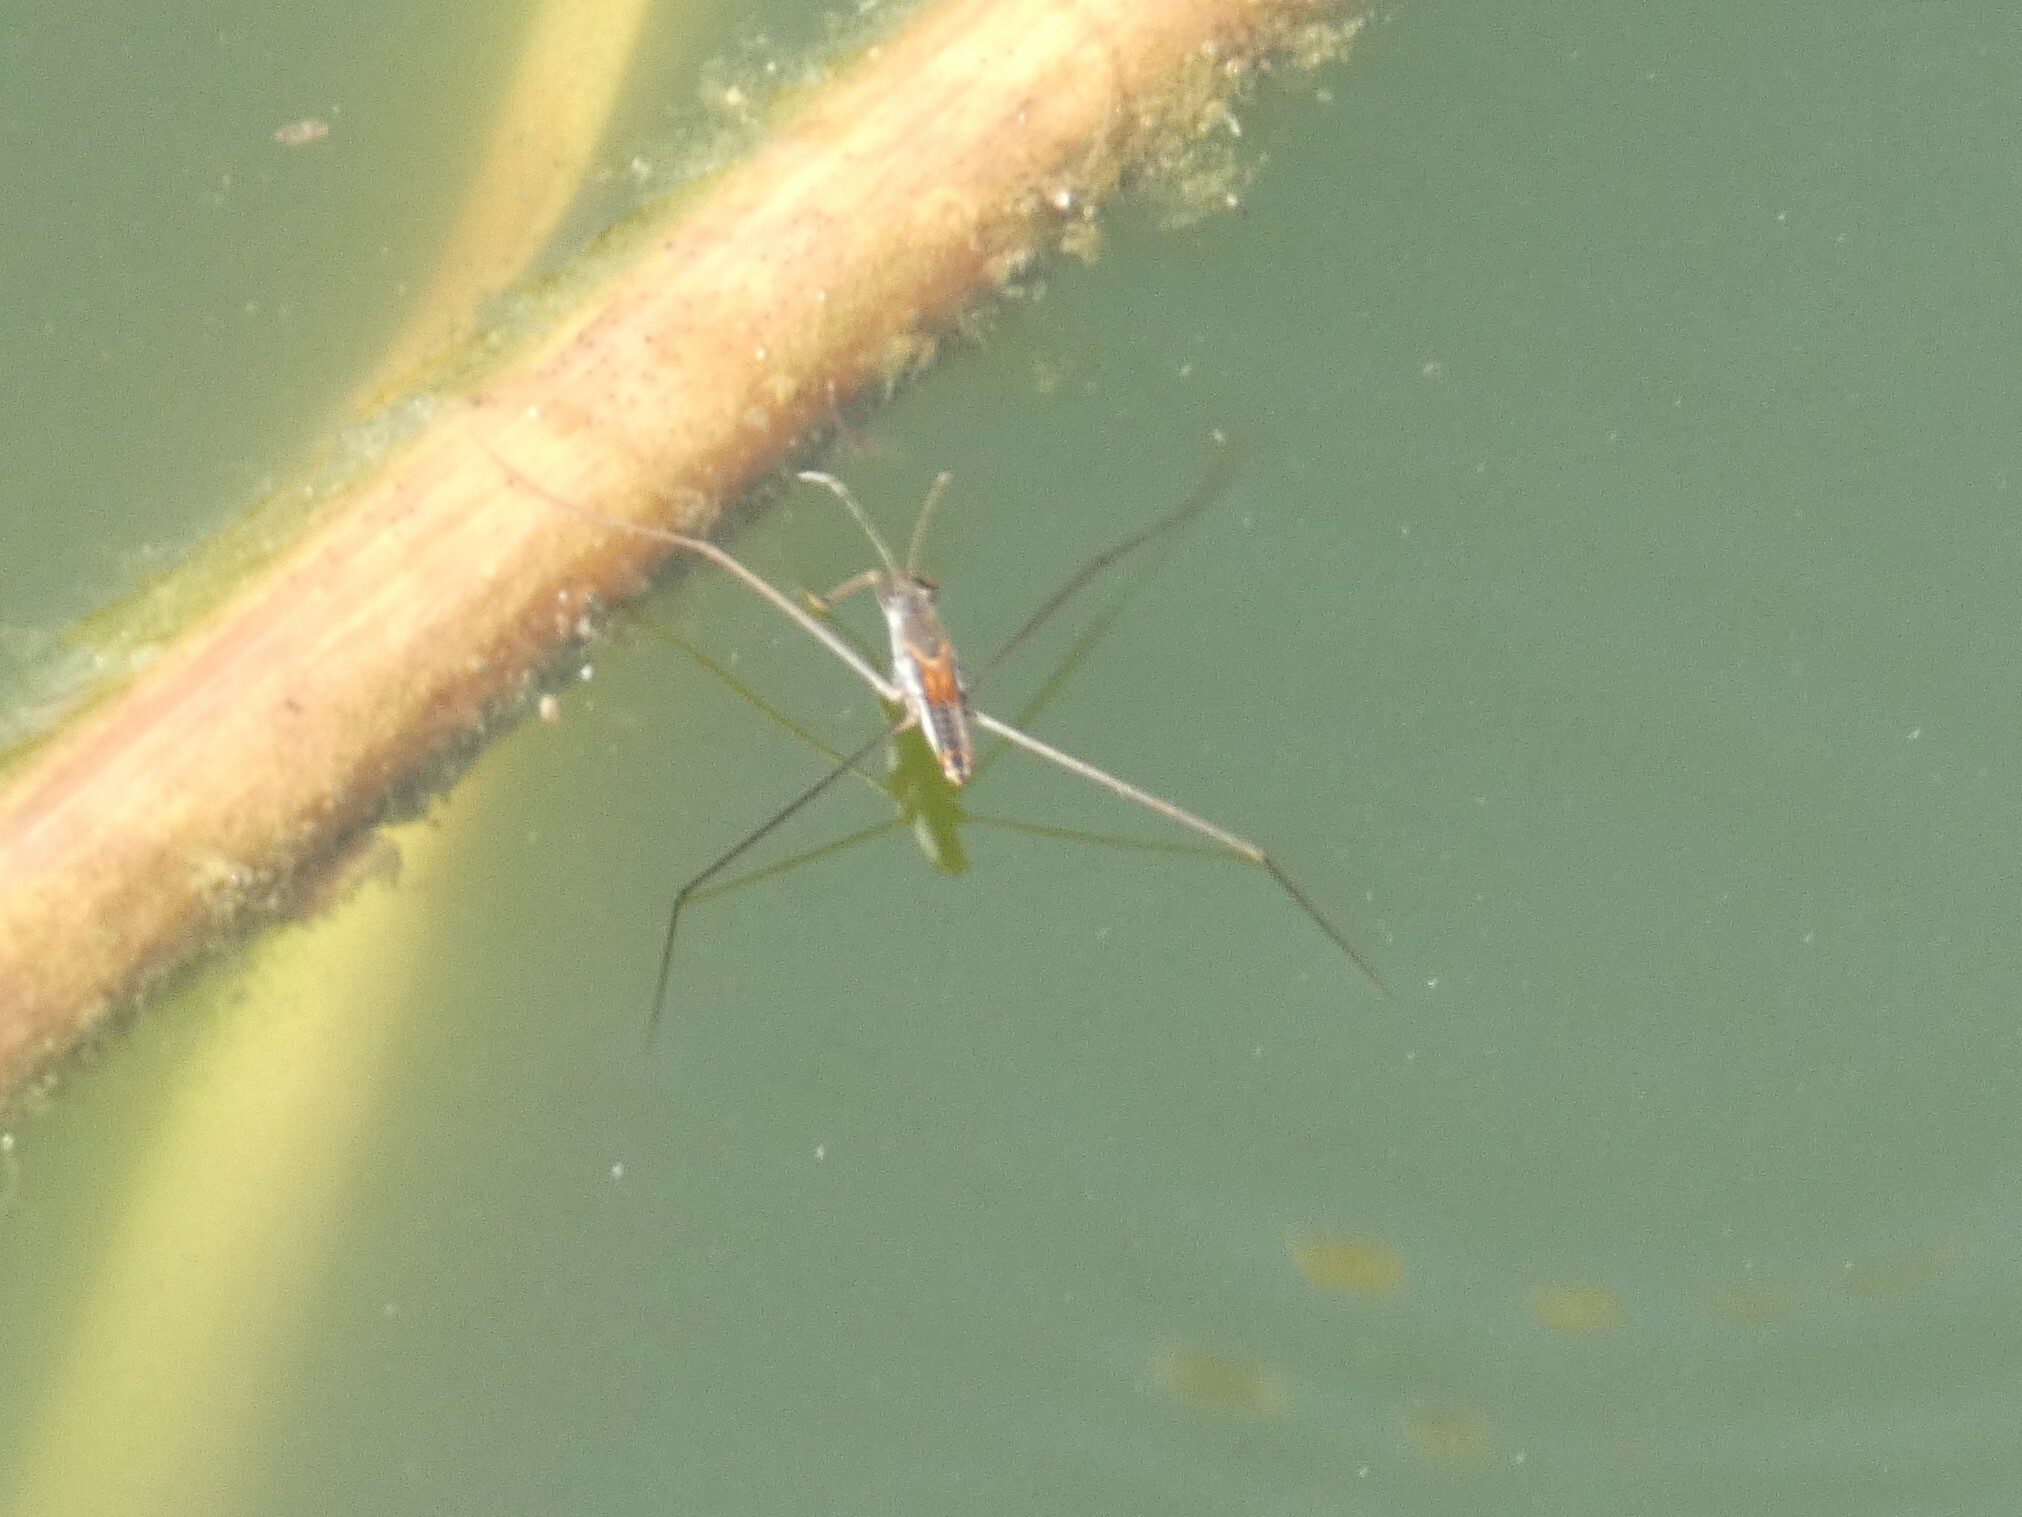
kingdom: Animalia
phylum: Arthropoda
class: Insecta
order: Hemiptera
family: Gerridae
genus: Aquarius
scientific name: Aquarius adelaidis
